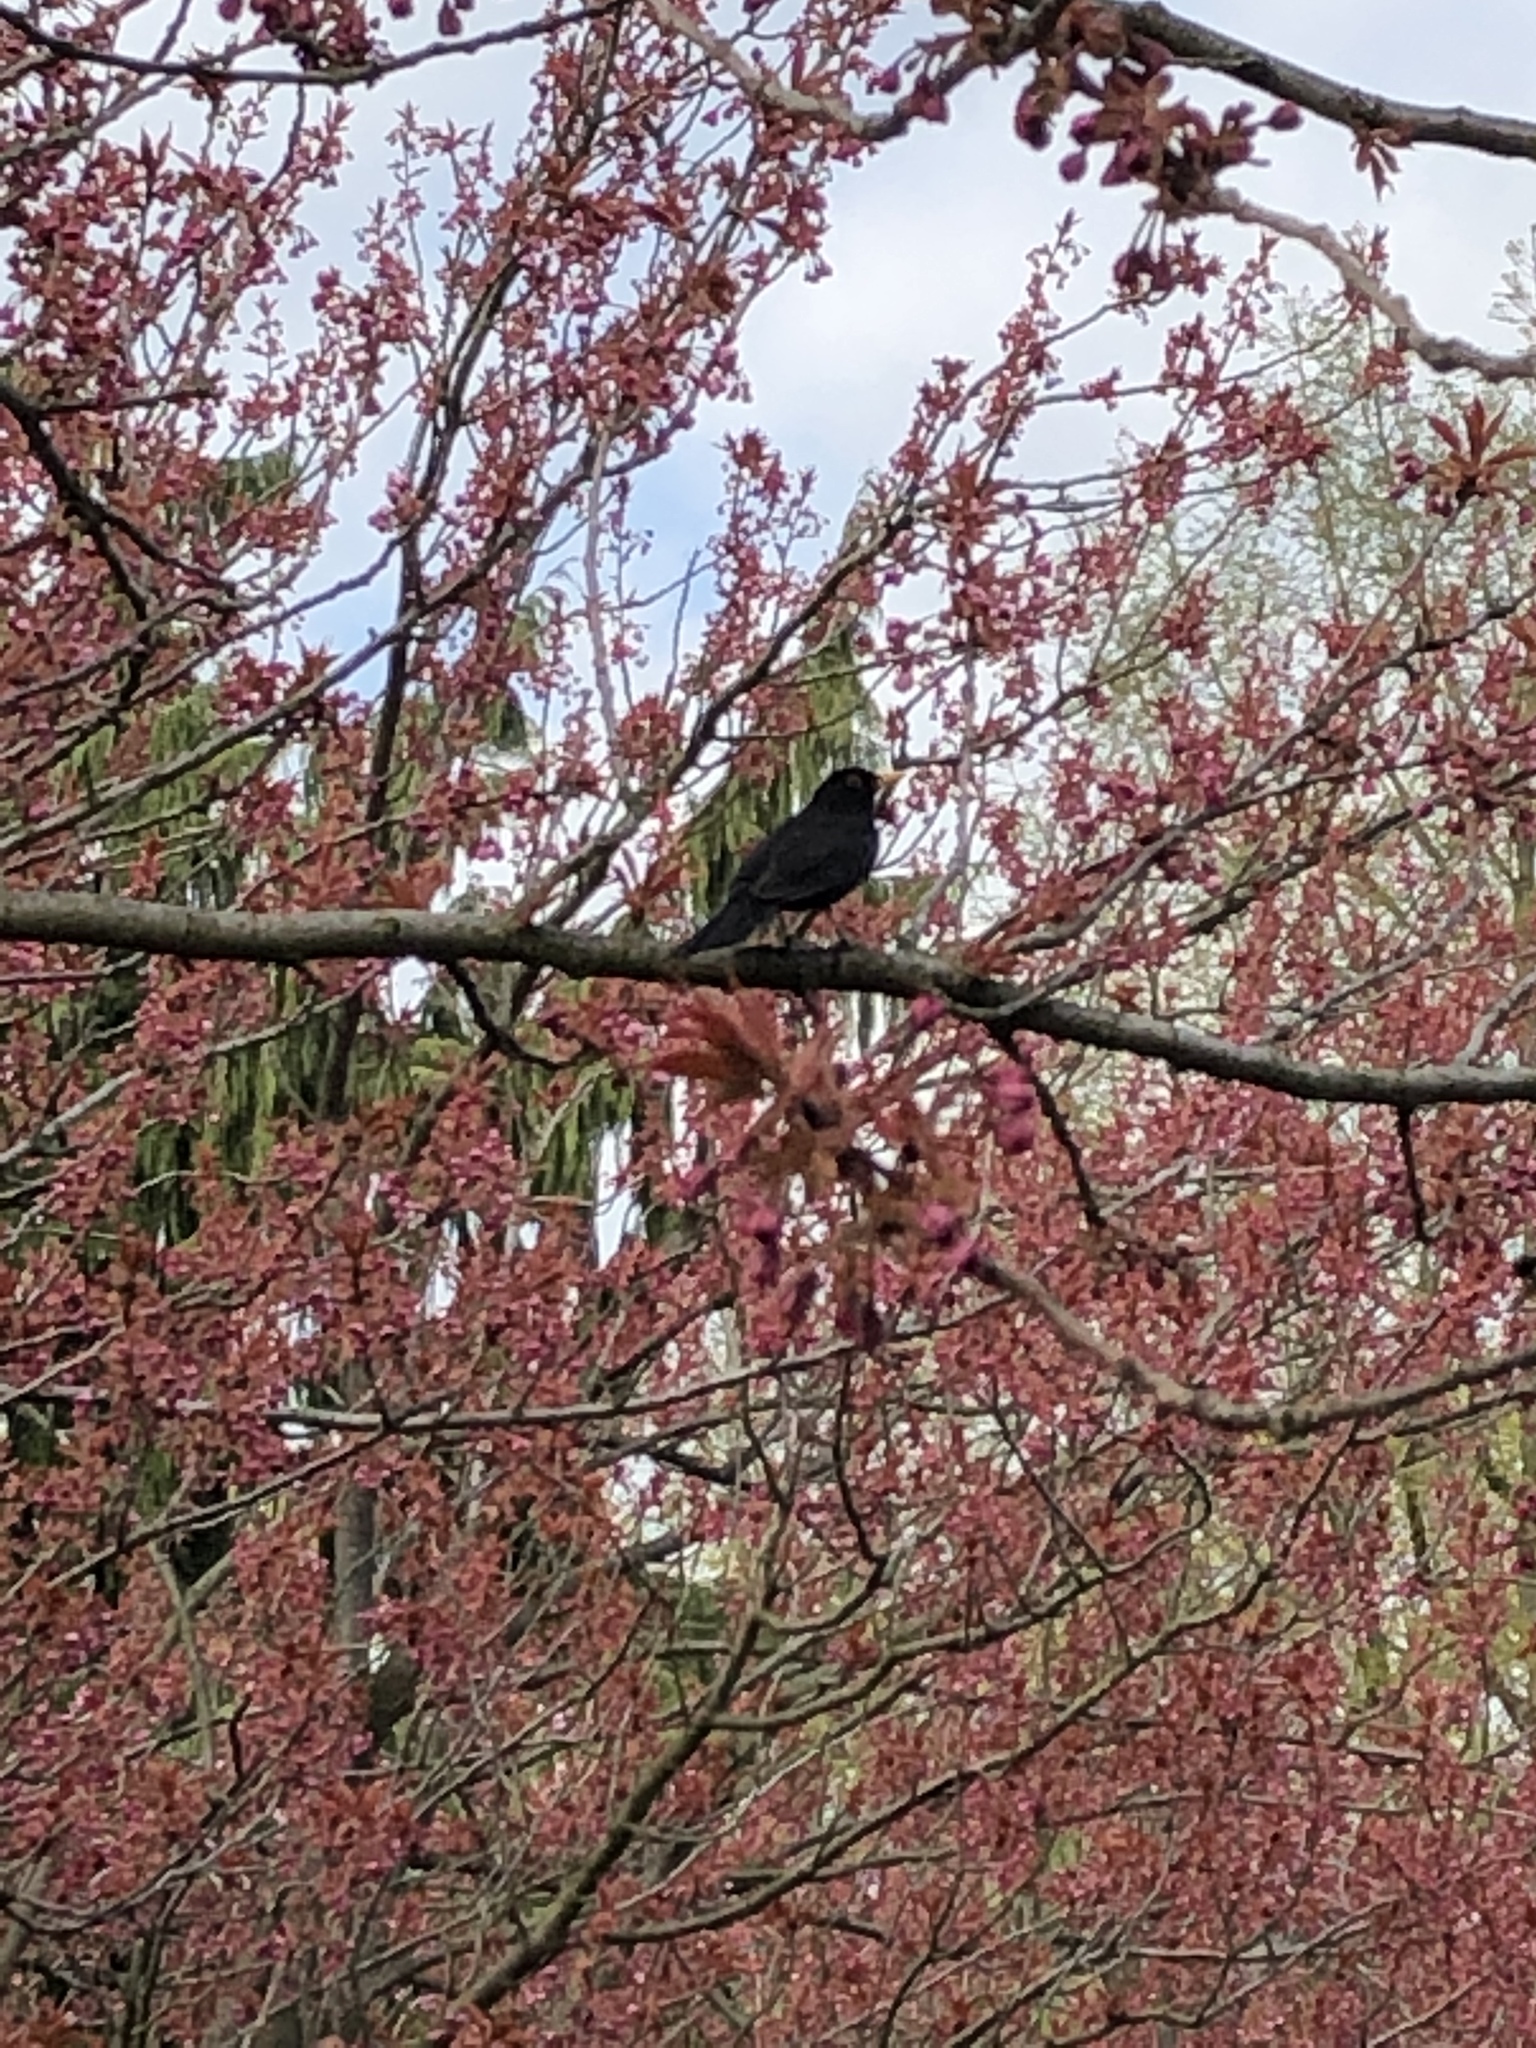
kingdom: Animalia
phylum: Chordata
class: Aves
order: Passeriformes
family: Turdidae
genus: Turdus
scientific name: Turdus merula
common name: Common blackbird
